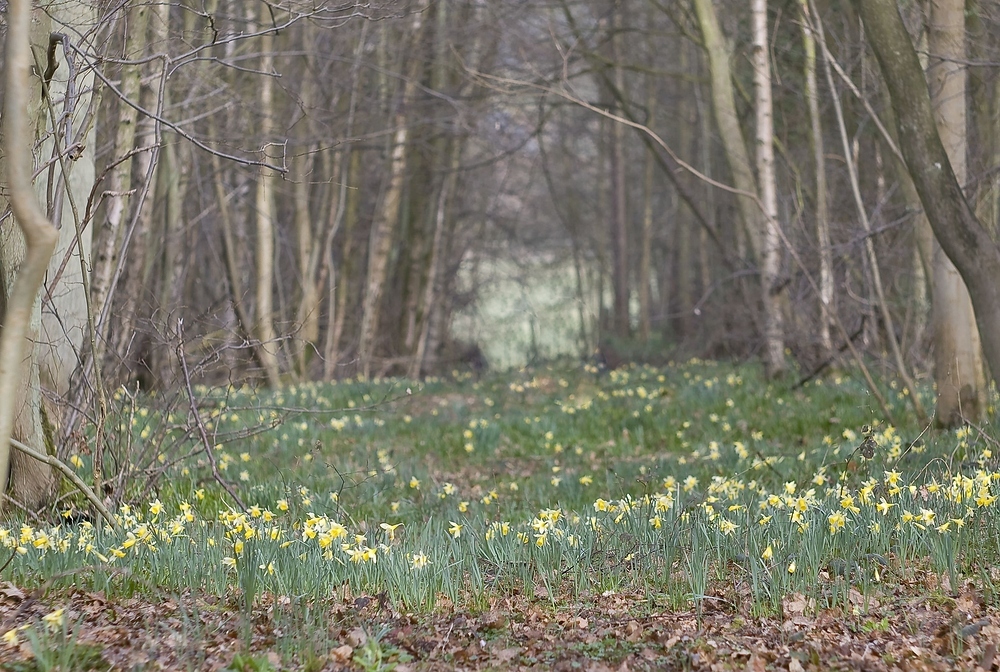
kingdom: Plantae
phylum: Tracheophyta
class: Liliopsida
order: Asparagales
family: Amaryllidaceae
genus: Narcissus
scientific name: Narcissus pseudonarcissus
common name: Daffodil
